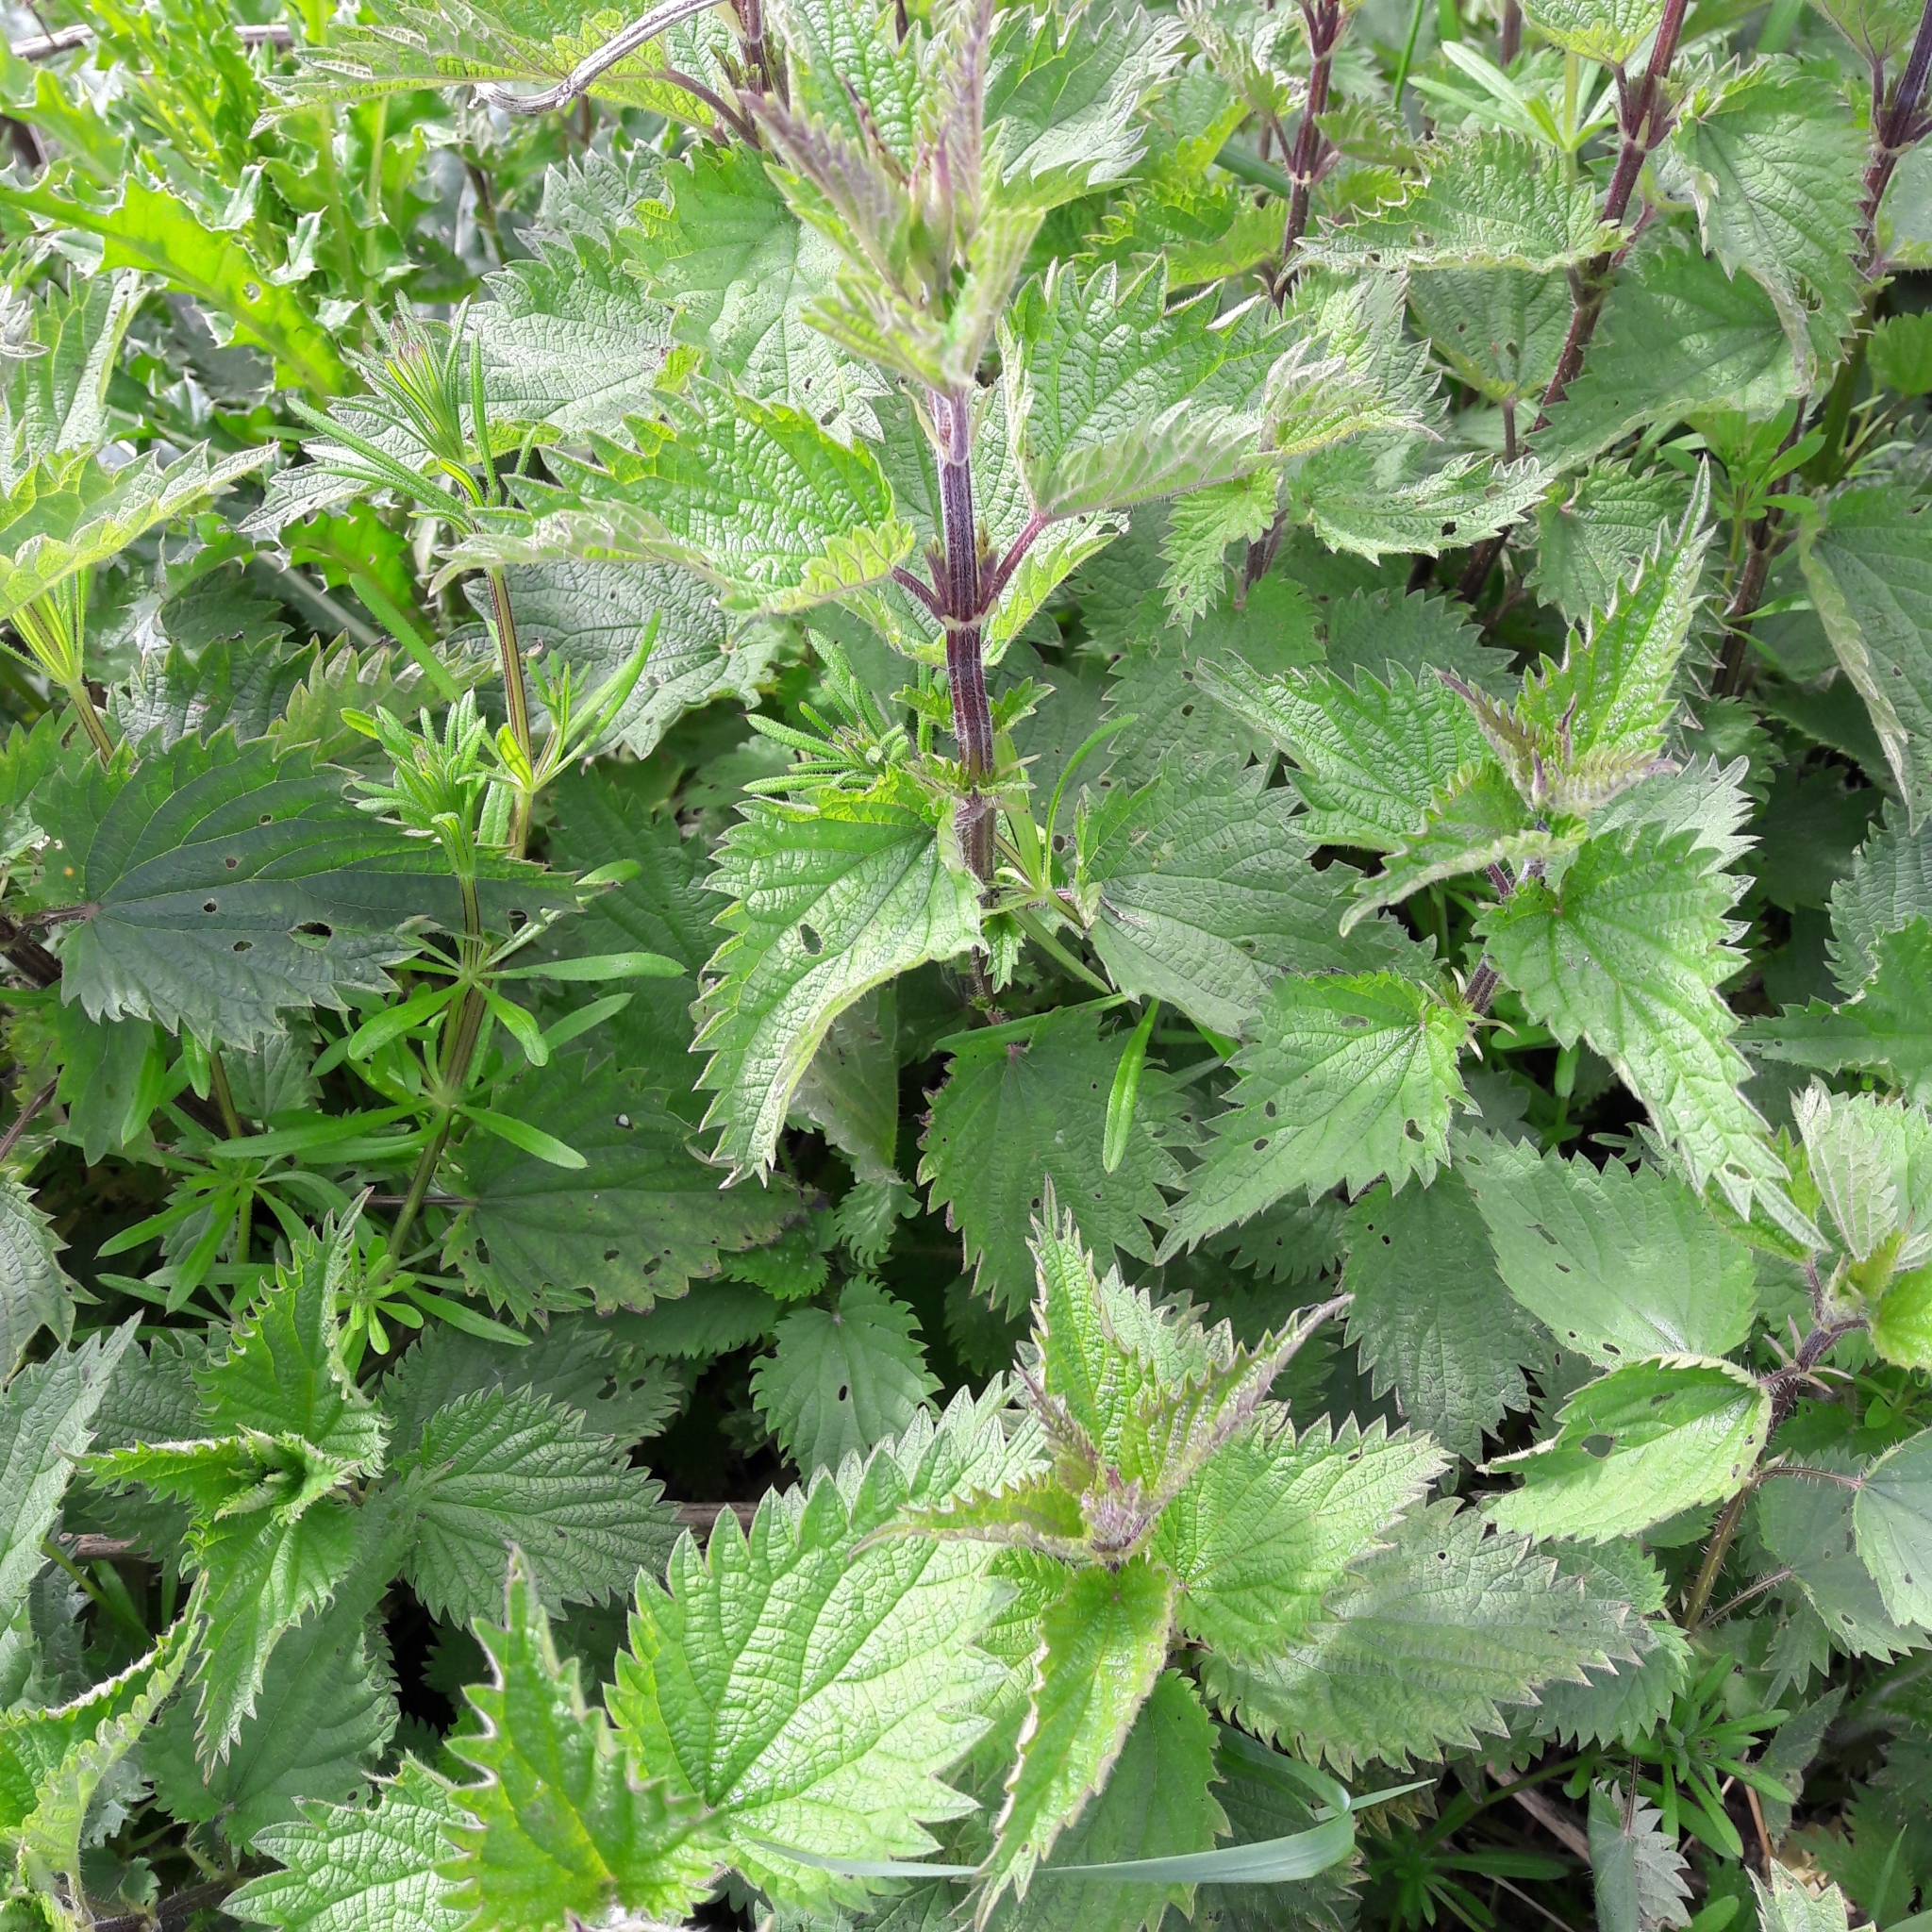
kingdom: Plantae
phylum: Tracheophyta
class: Magnoliopsida
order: Rosales
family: Urticaceae
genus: Urtica
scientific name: Urtica dioica
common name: Common nettle
